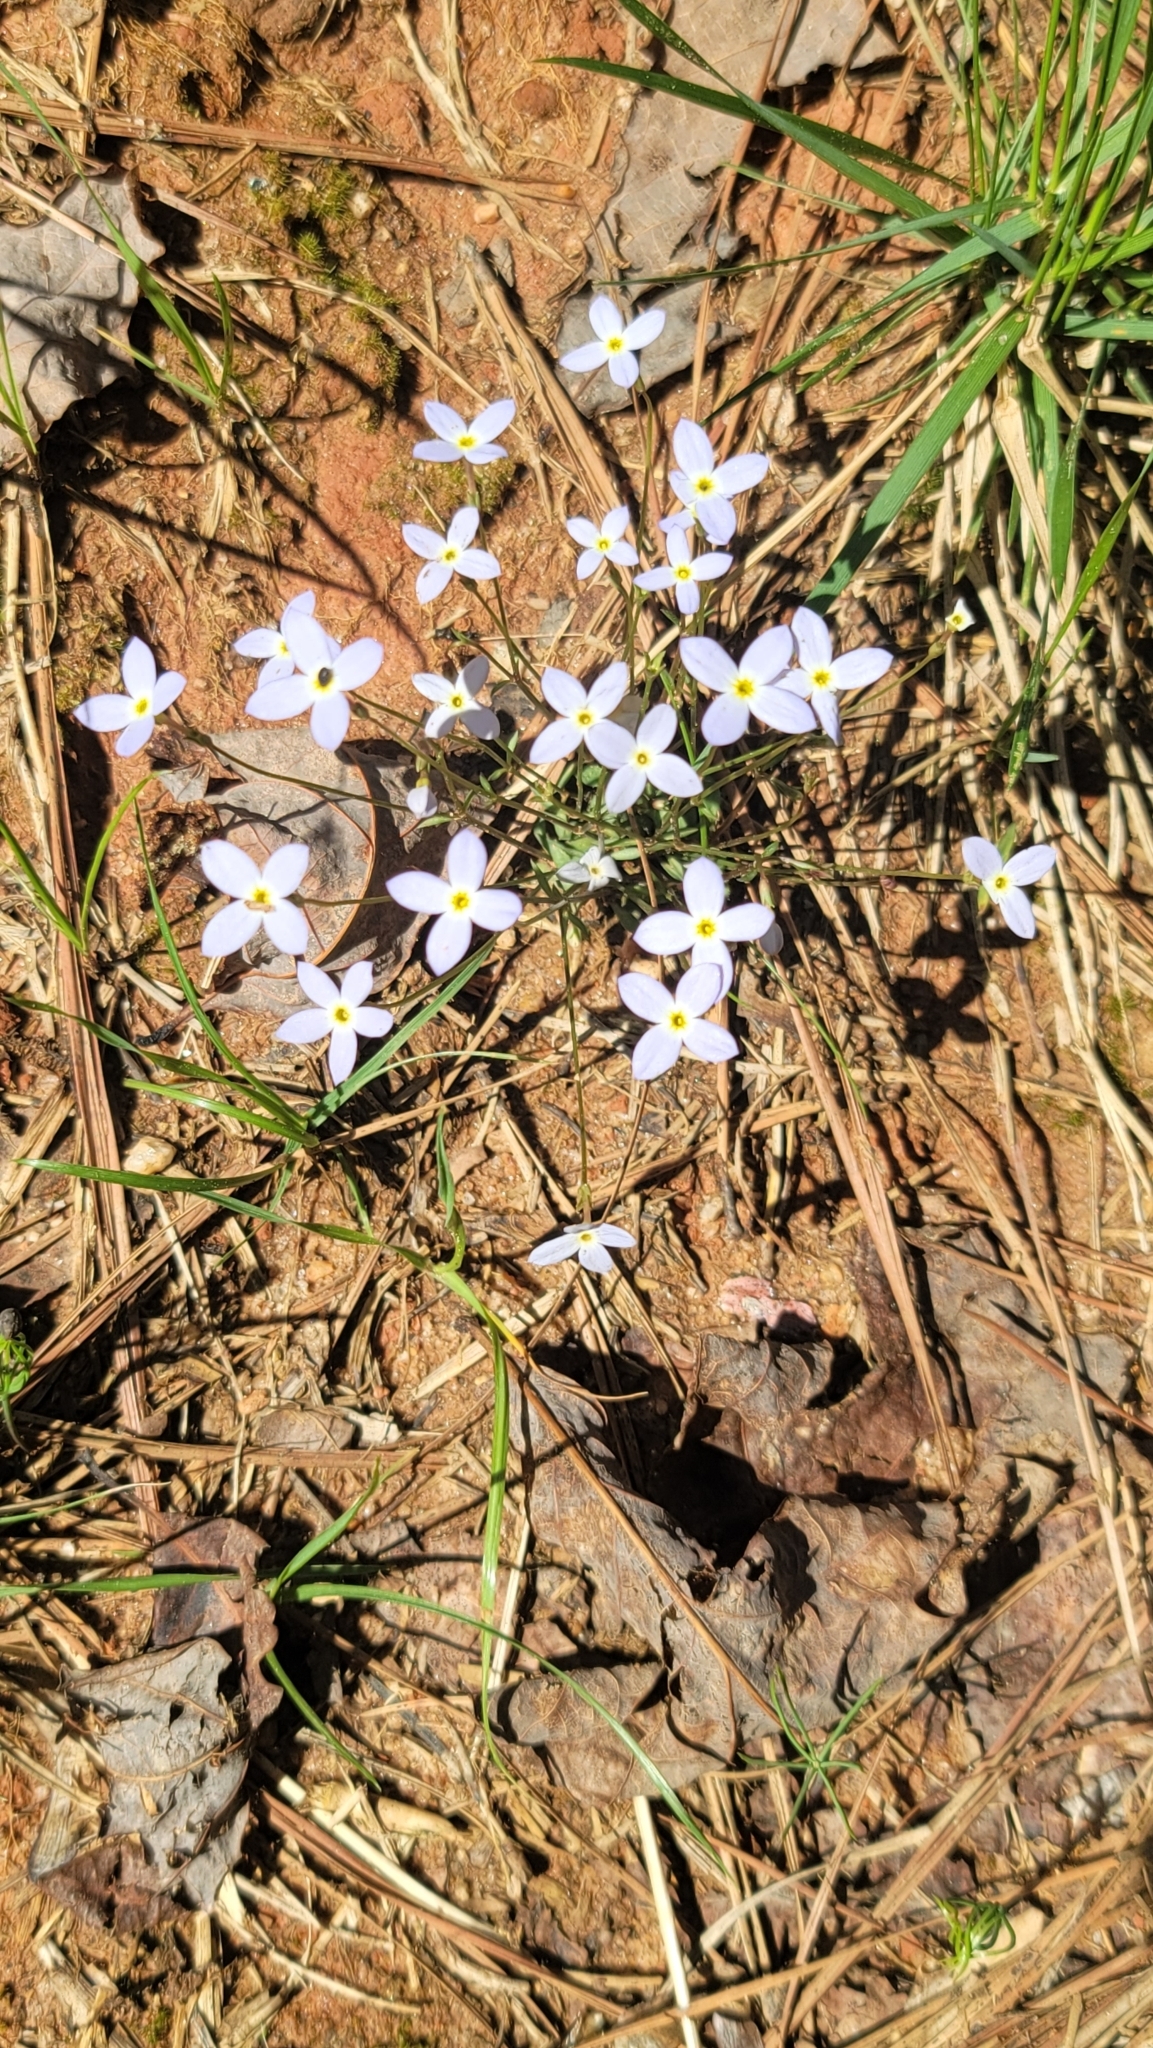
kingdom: Plantae
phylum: Tracheophyta
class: Magnoliopsida
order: Gentianales
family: Rubiaceae
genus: Houstonia
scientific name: Houstonia caerulea
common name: Bluets
